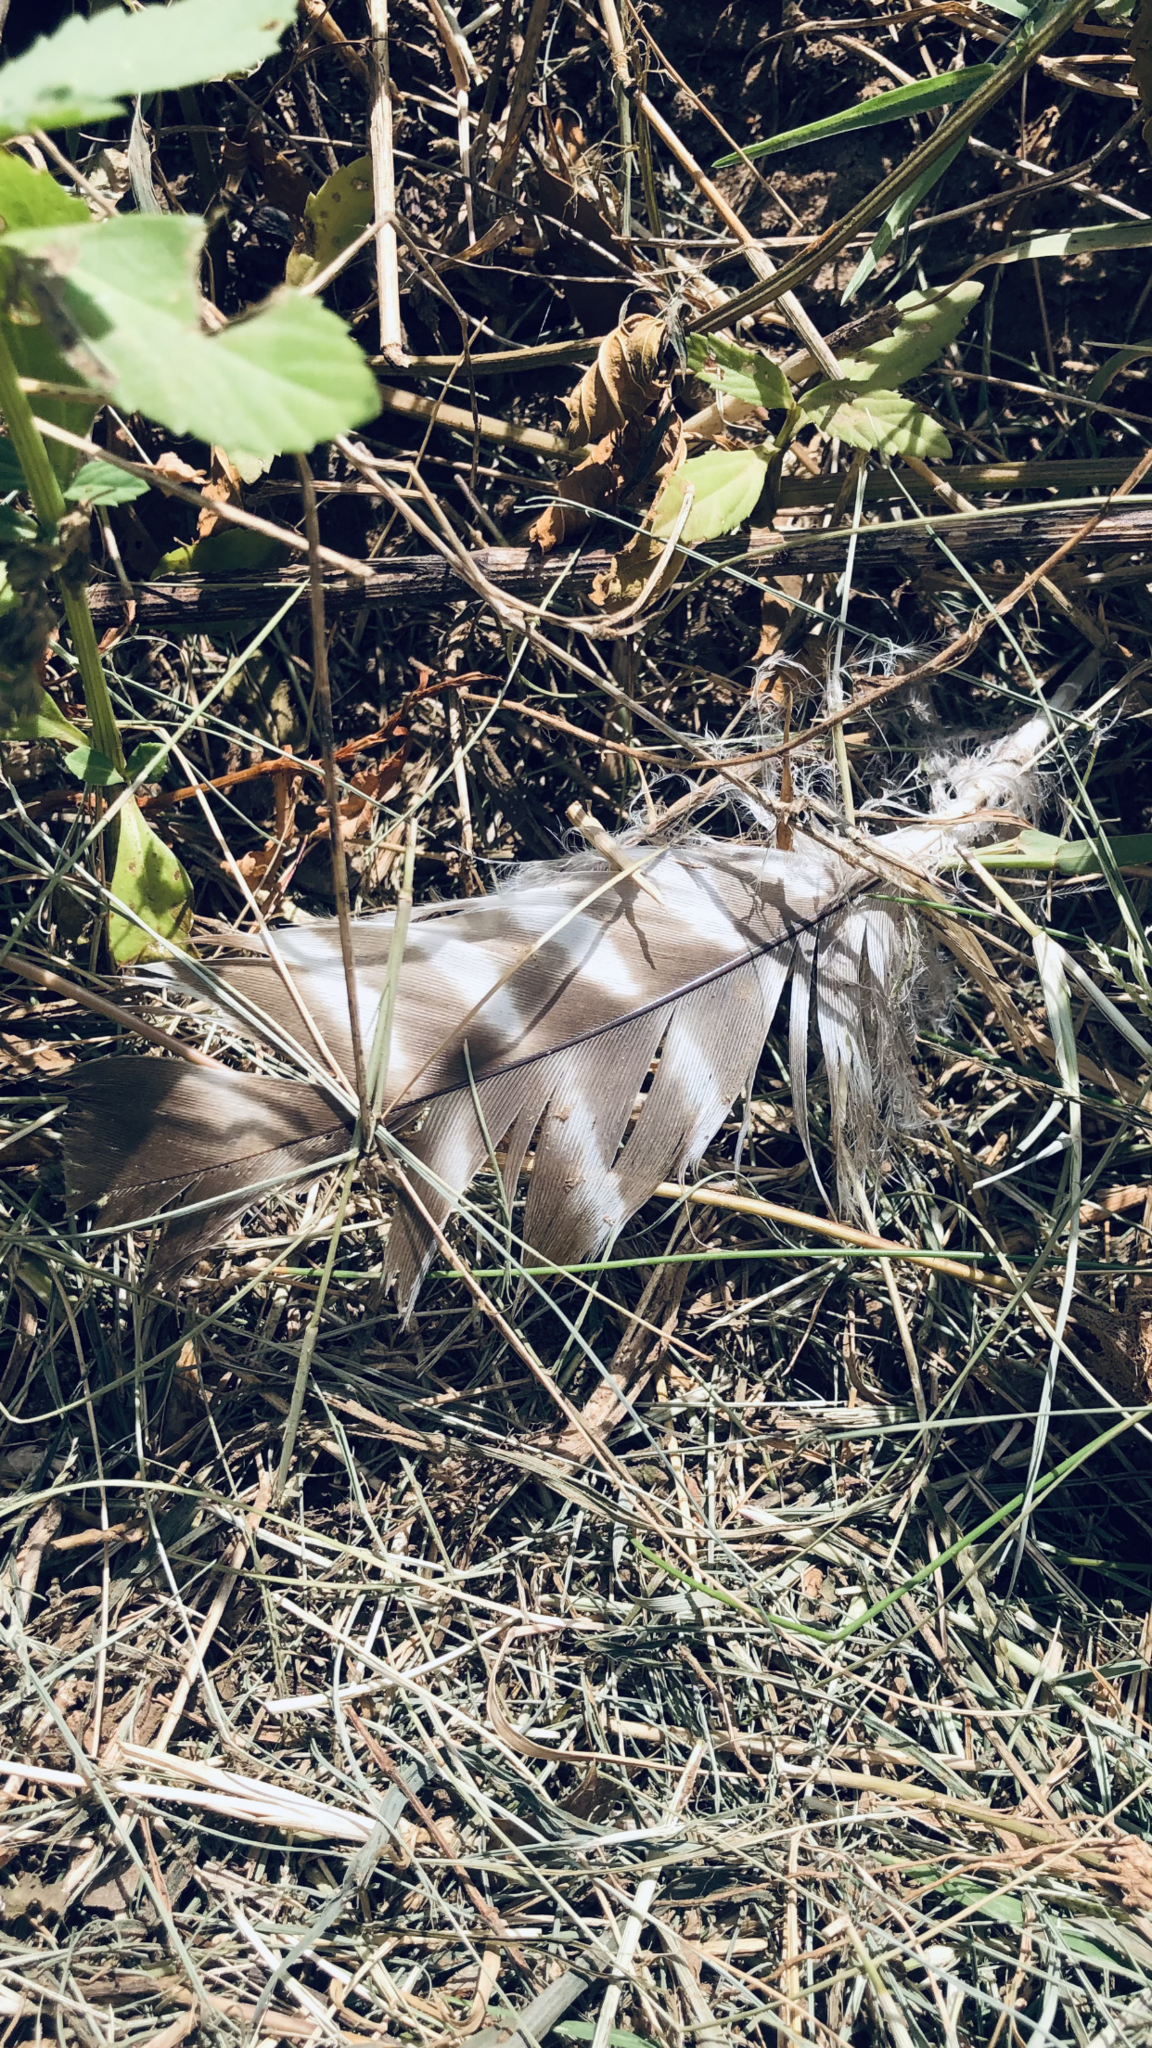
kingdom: Animalia
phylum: Chordata
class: Aves
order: Accipitriformes
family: Accipitridae
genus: Buteo
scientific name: Buteo lineatus
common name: Red-shouldered hawk
